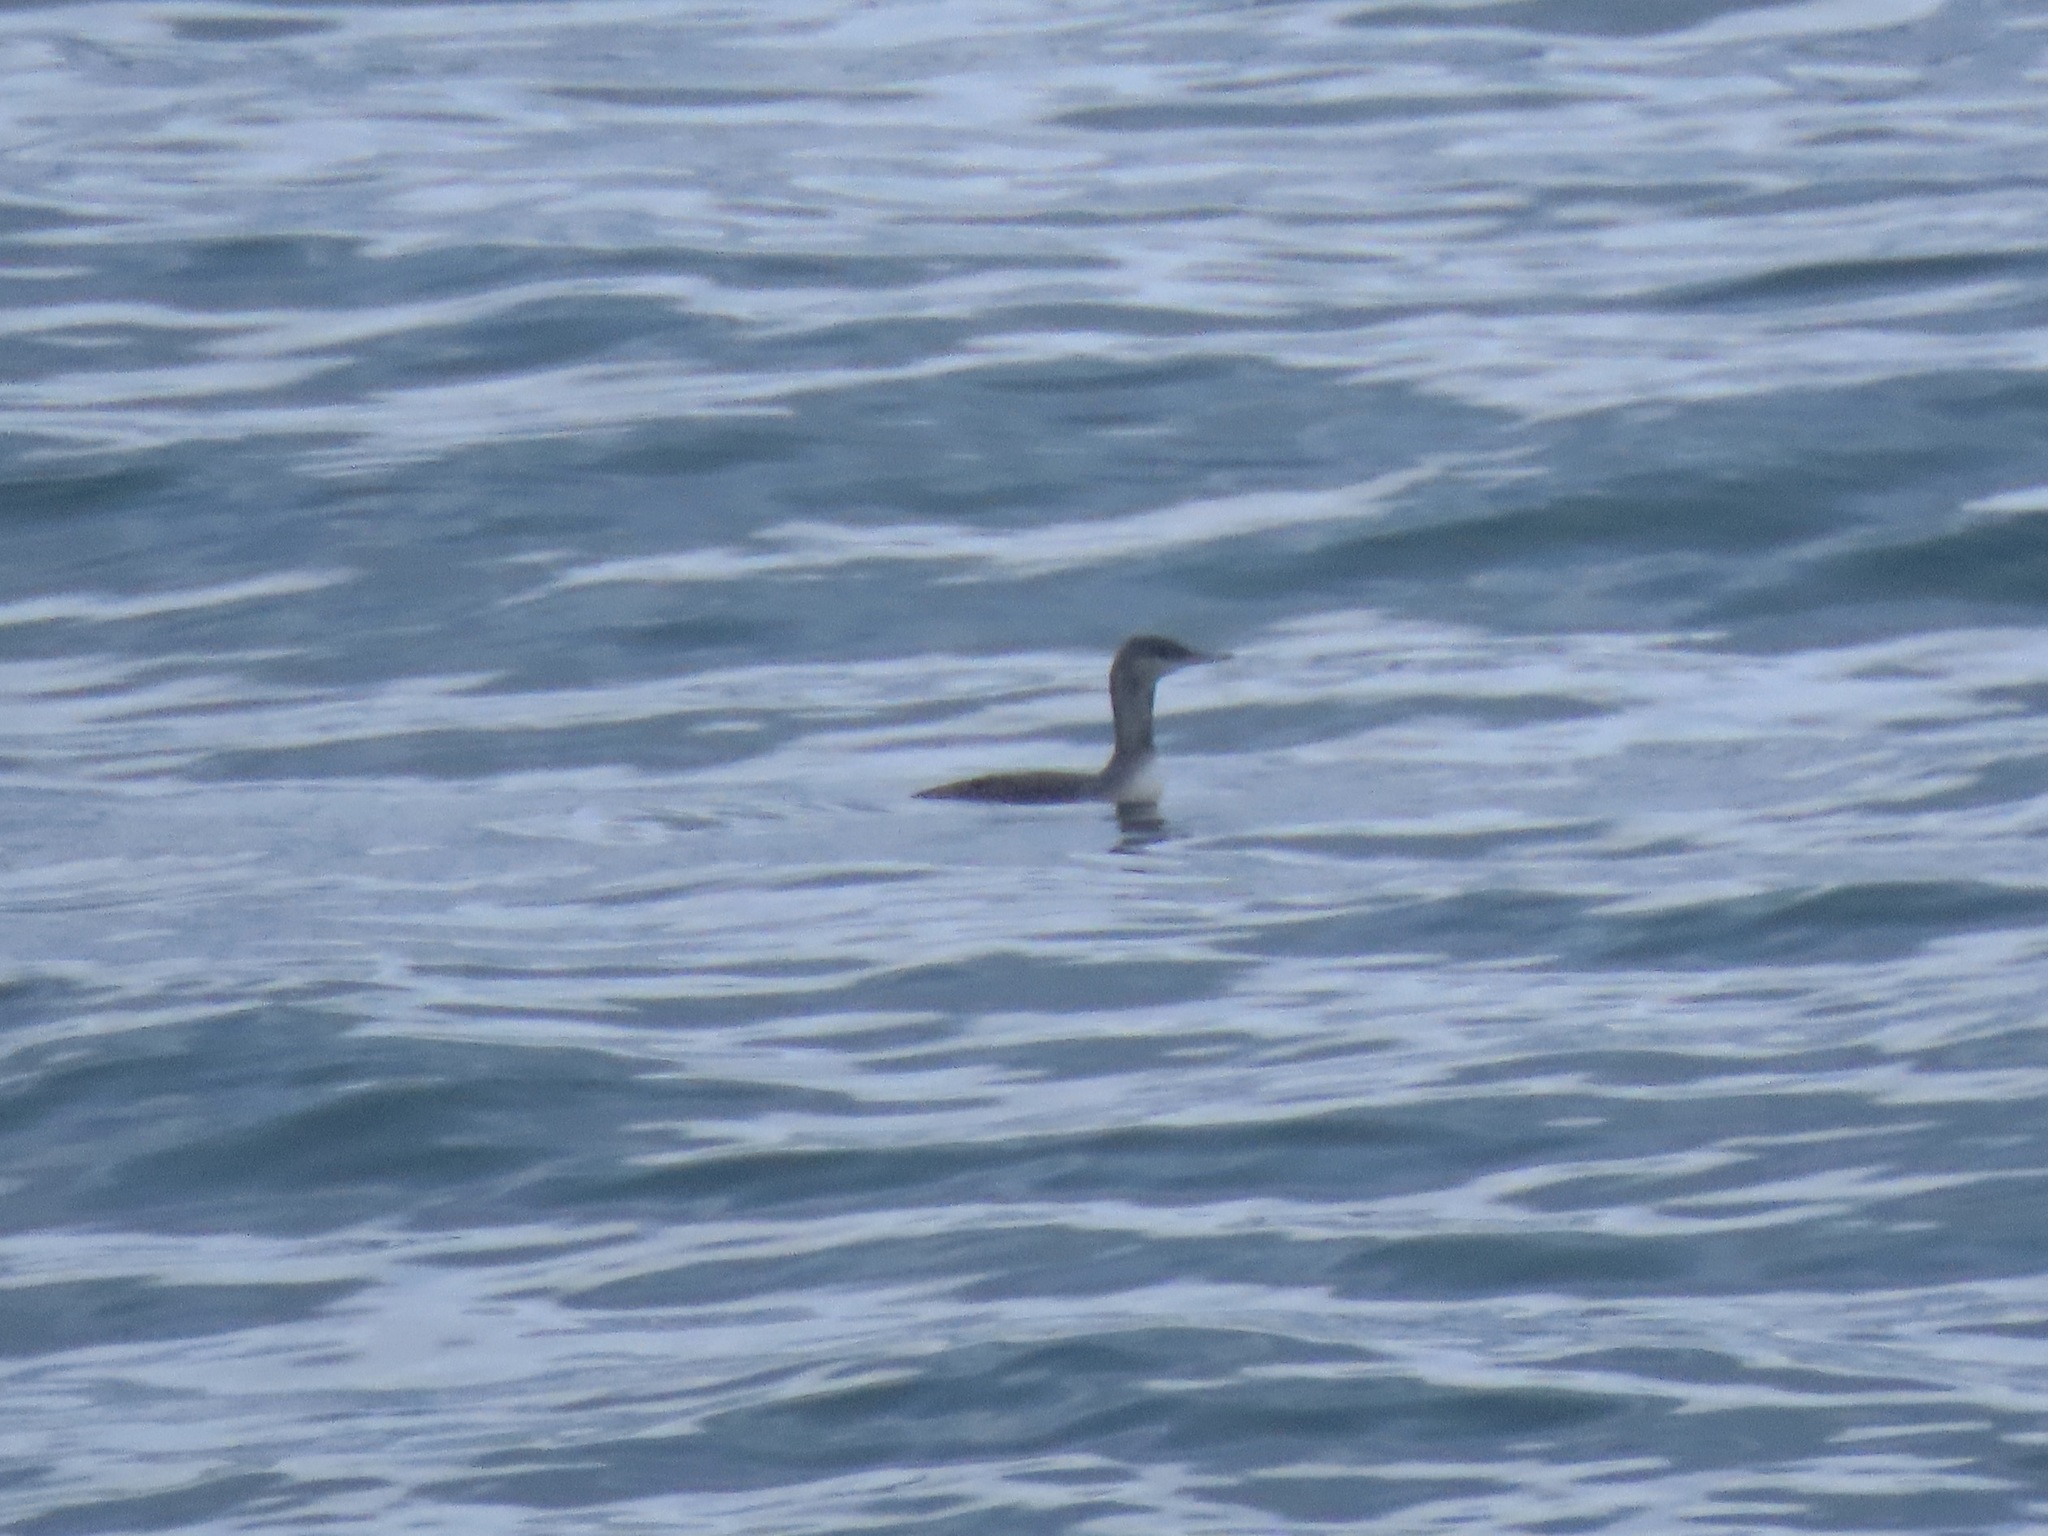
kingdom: Animalia
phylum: Chordata
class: Aves
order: Gaviiformes
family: Gaviidae
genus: Gavia
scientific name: Gavia stellata
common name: Red-throated loon
